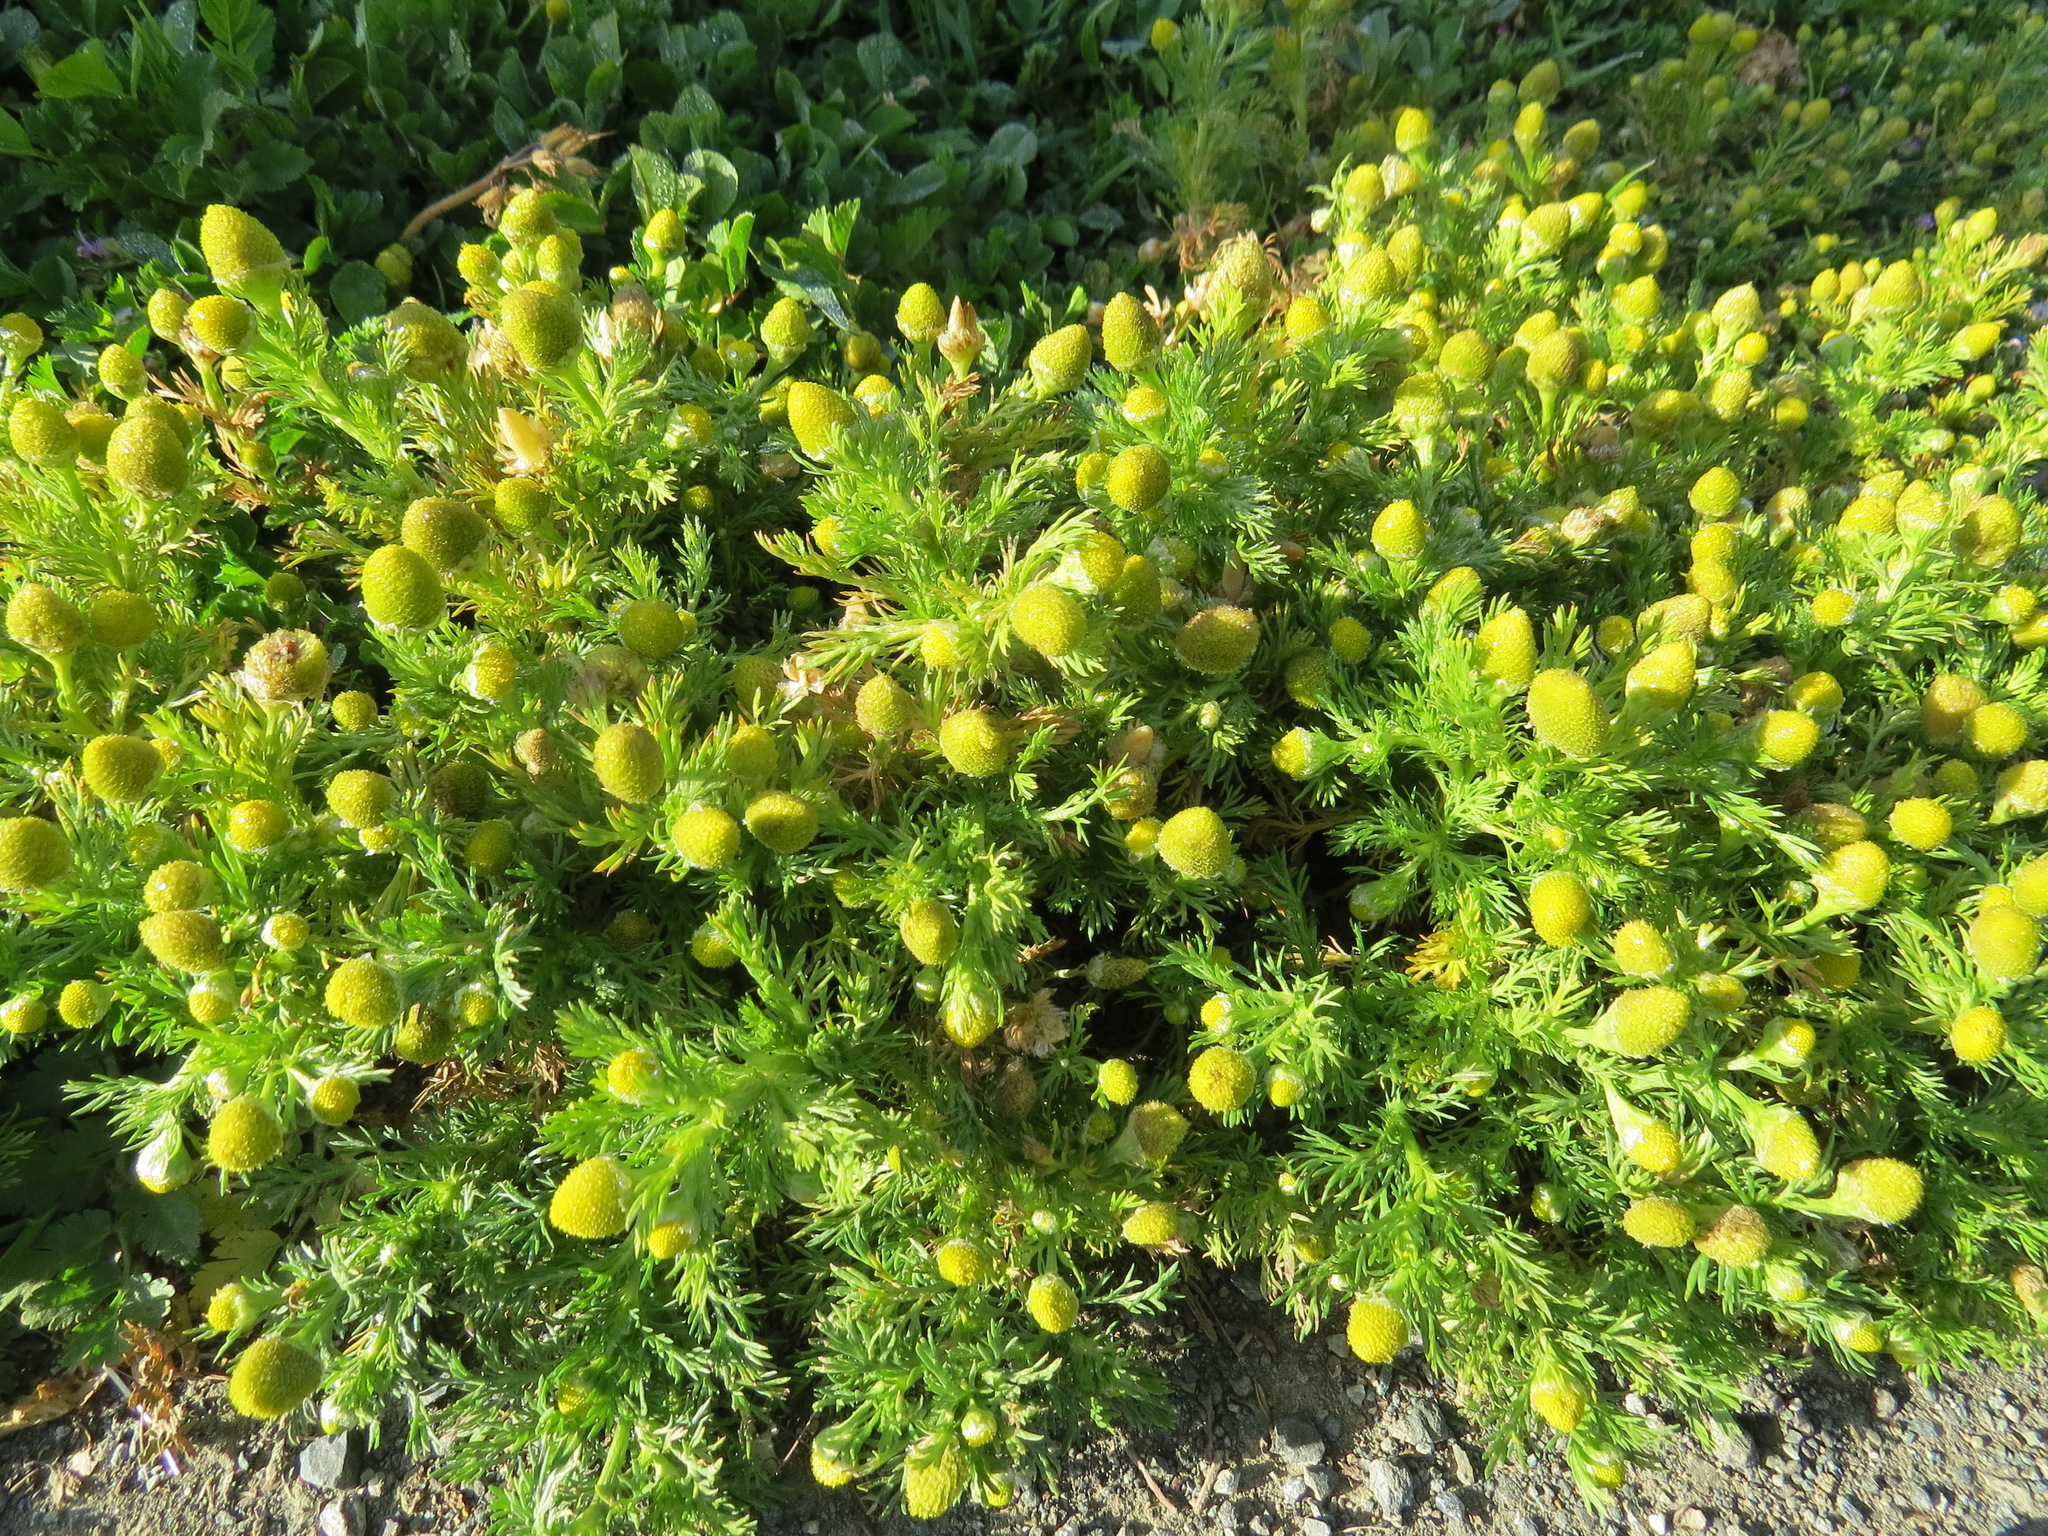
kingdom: Plantae
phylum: Tracheophyta
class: Magnoliopsida
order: Asterales
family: Asteraceae
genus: Matricaria
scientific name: Matricaria discoidea
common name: Disc mayweed
